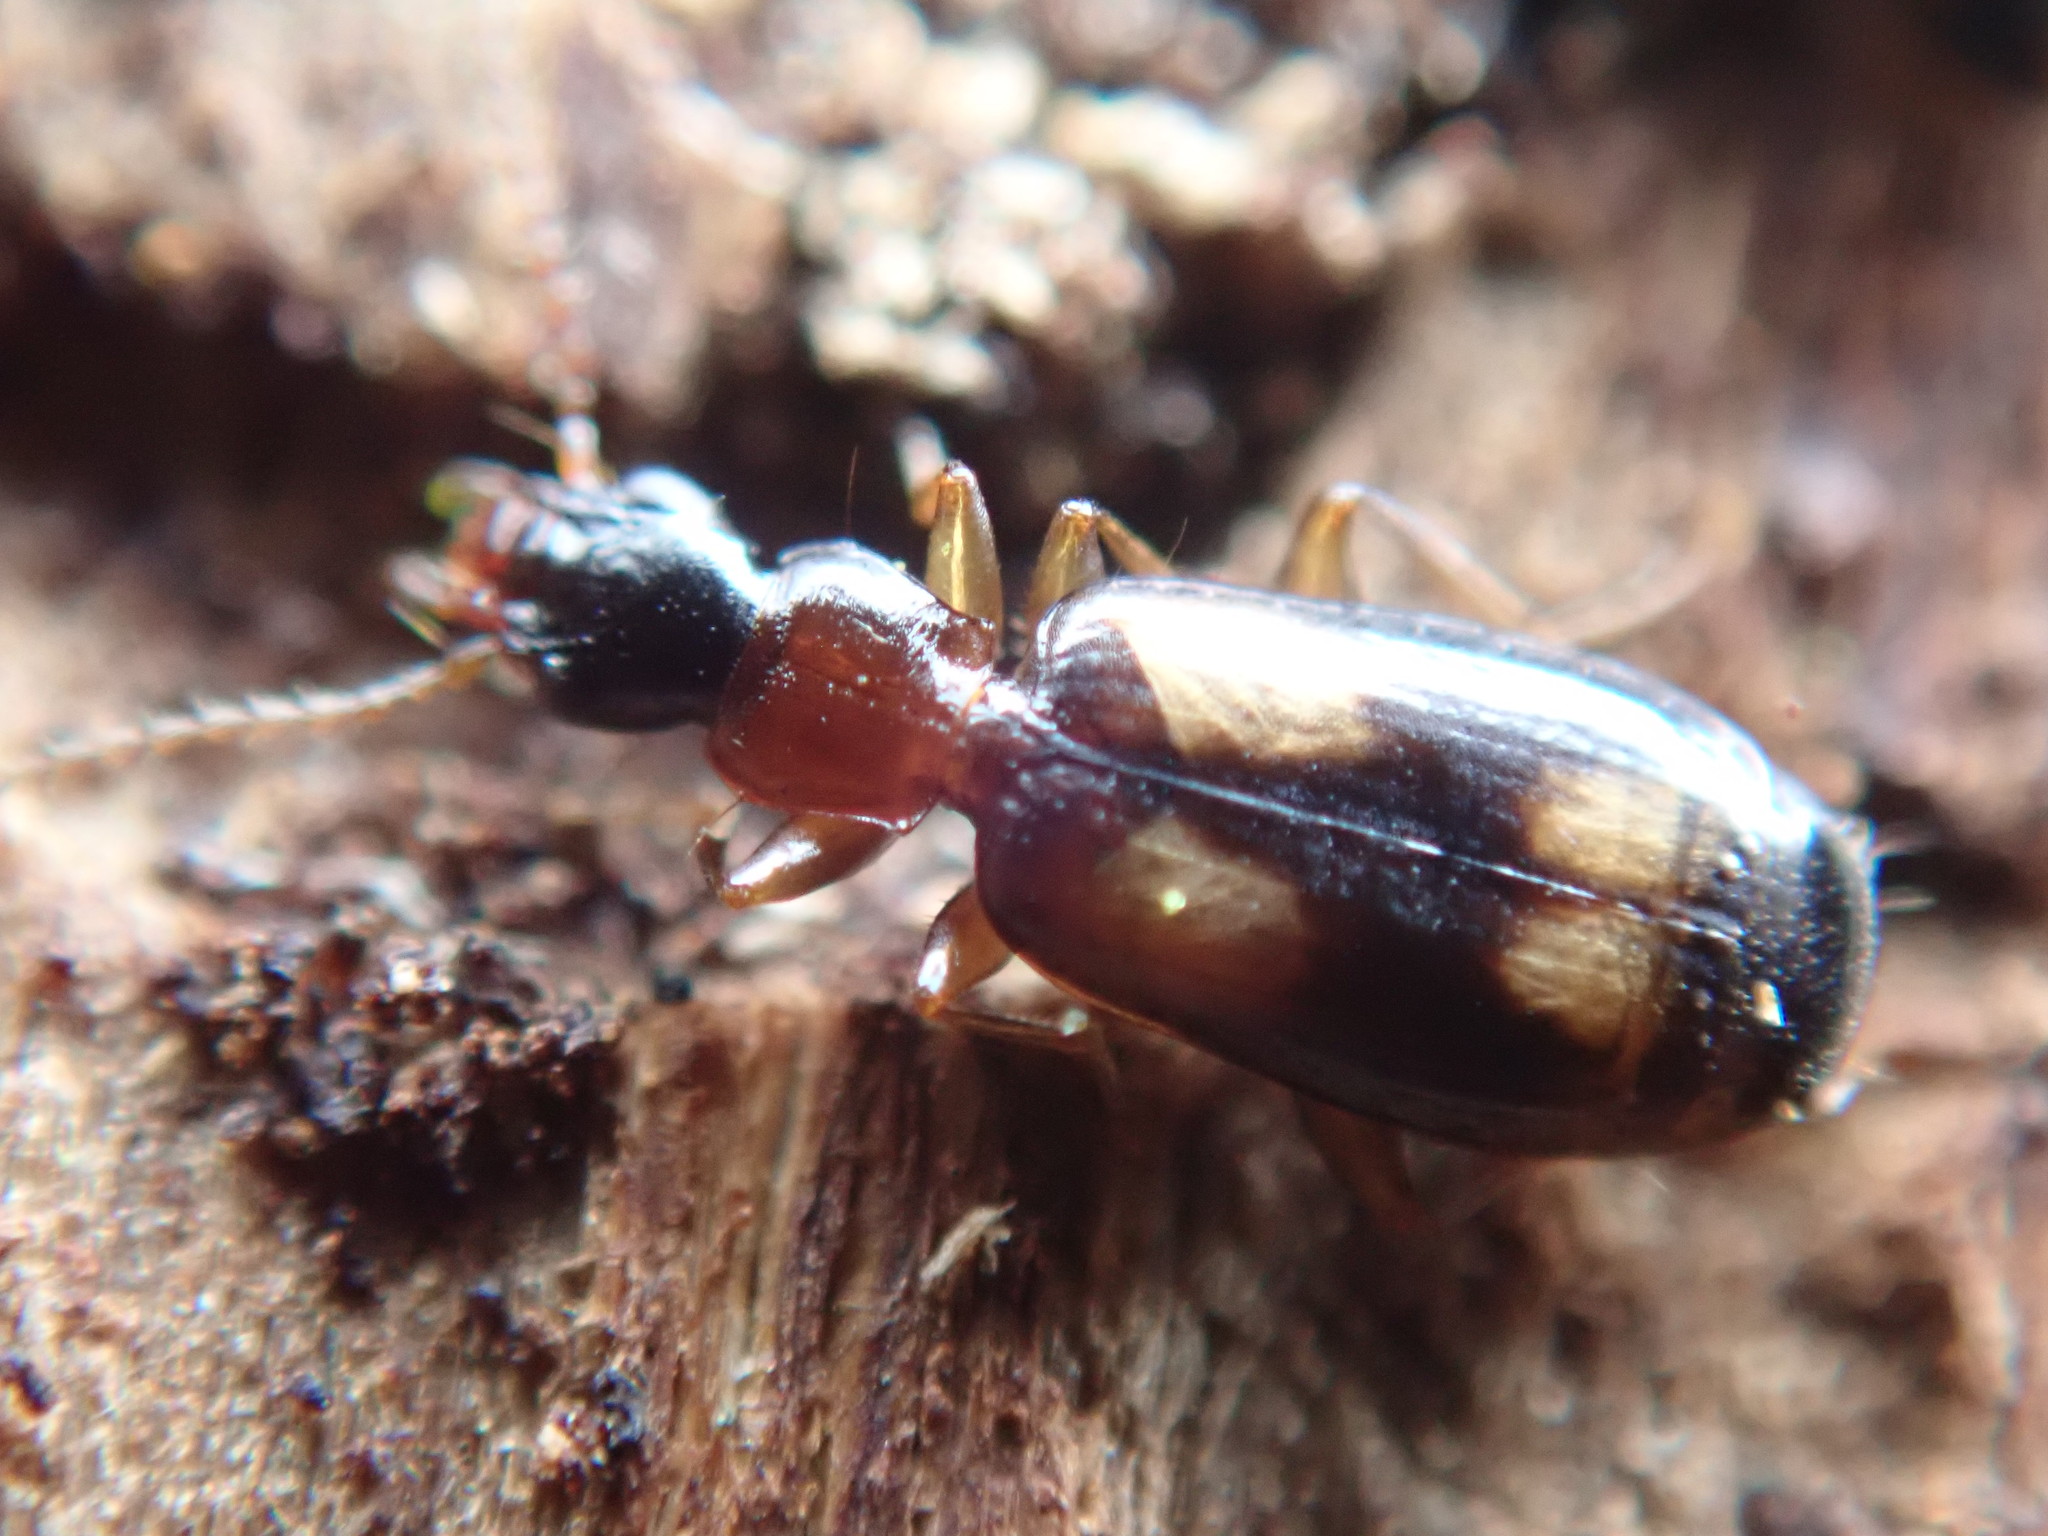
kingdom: Animalia
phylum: Arthropoda
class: Insecta
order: Coleoptera
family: Carabidae
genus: Calodromius
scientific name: Calodromius spilotus
